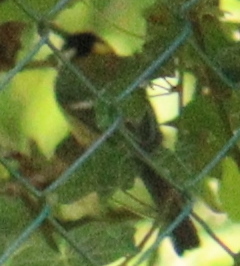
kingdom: Animalia
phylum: Chordata
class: Aves
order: Passeriformes
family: Paridae
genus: Parus
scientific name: Parus major
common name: Great tit
